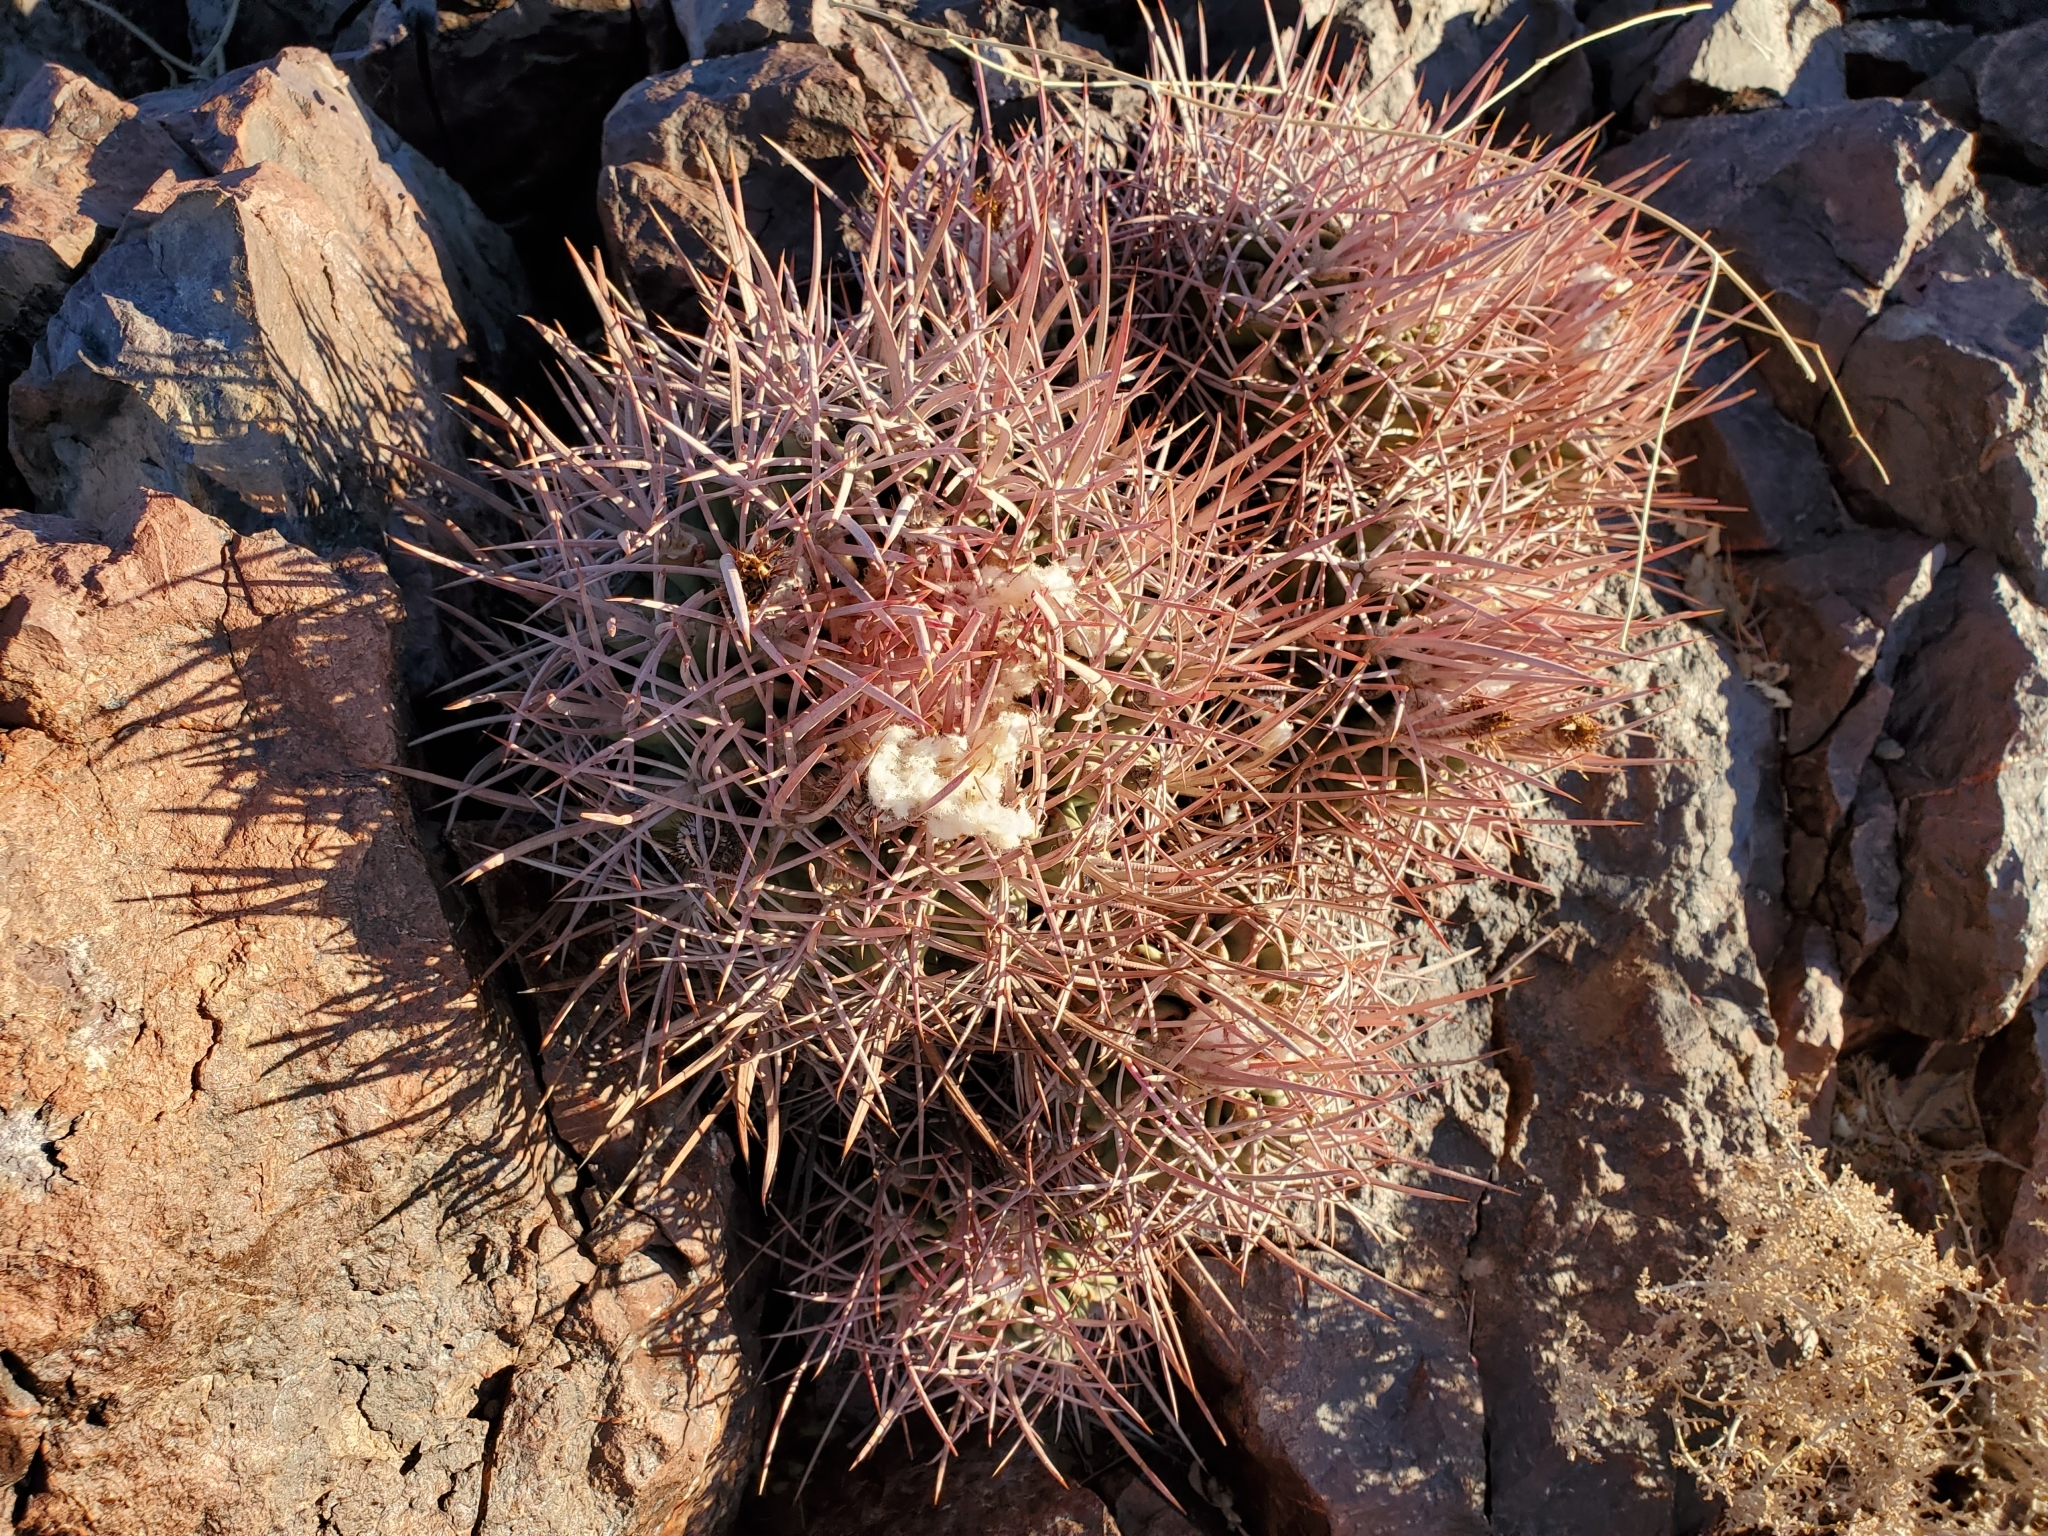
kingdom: Plantae
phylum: Tracheophyta
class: Magnoliopsida
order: Caryophyllales
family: Cactaceae
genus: Echinocactus
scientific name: Echinocactus polycephalus
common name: Cottontop cactus
